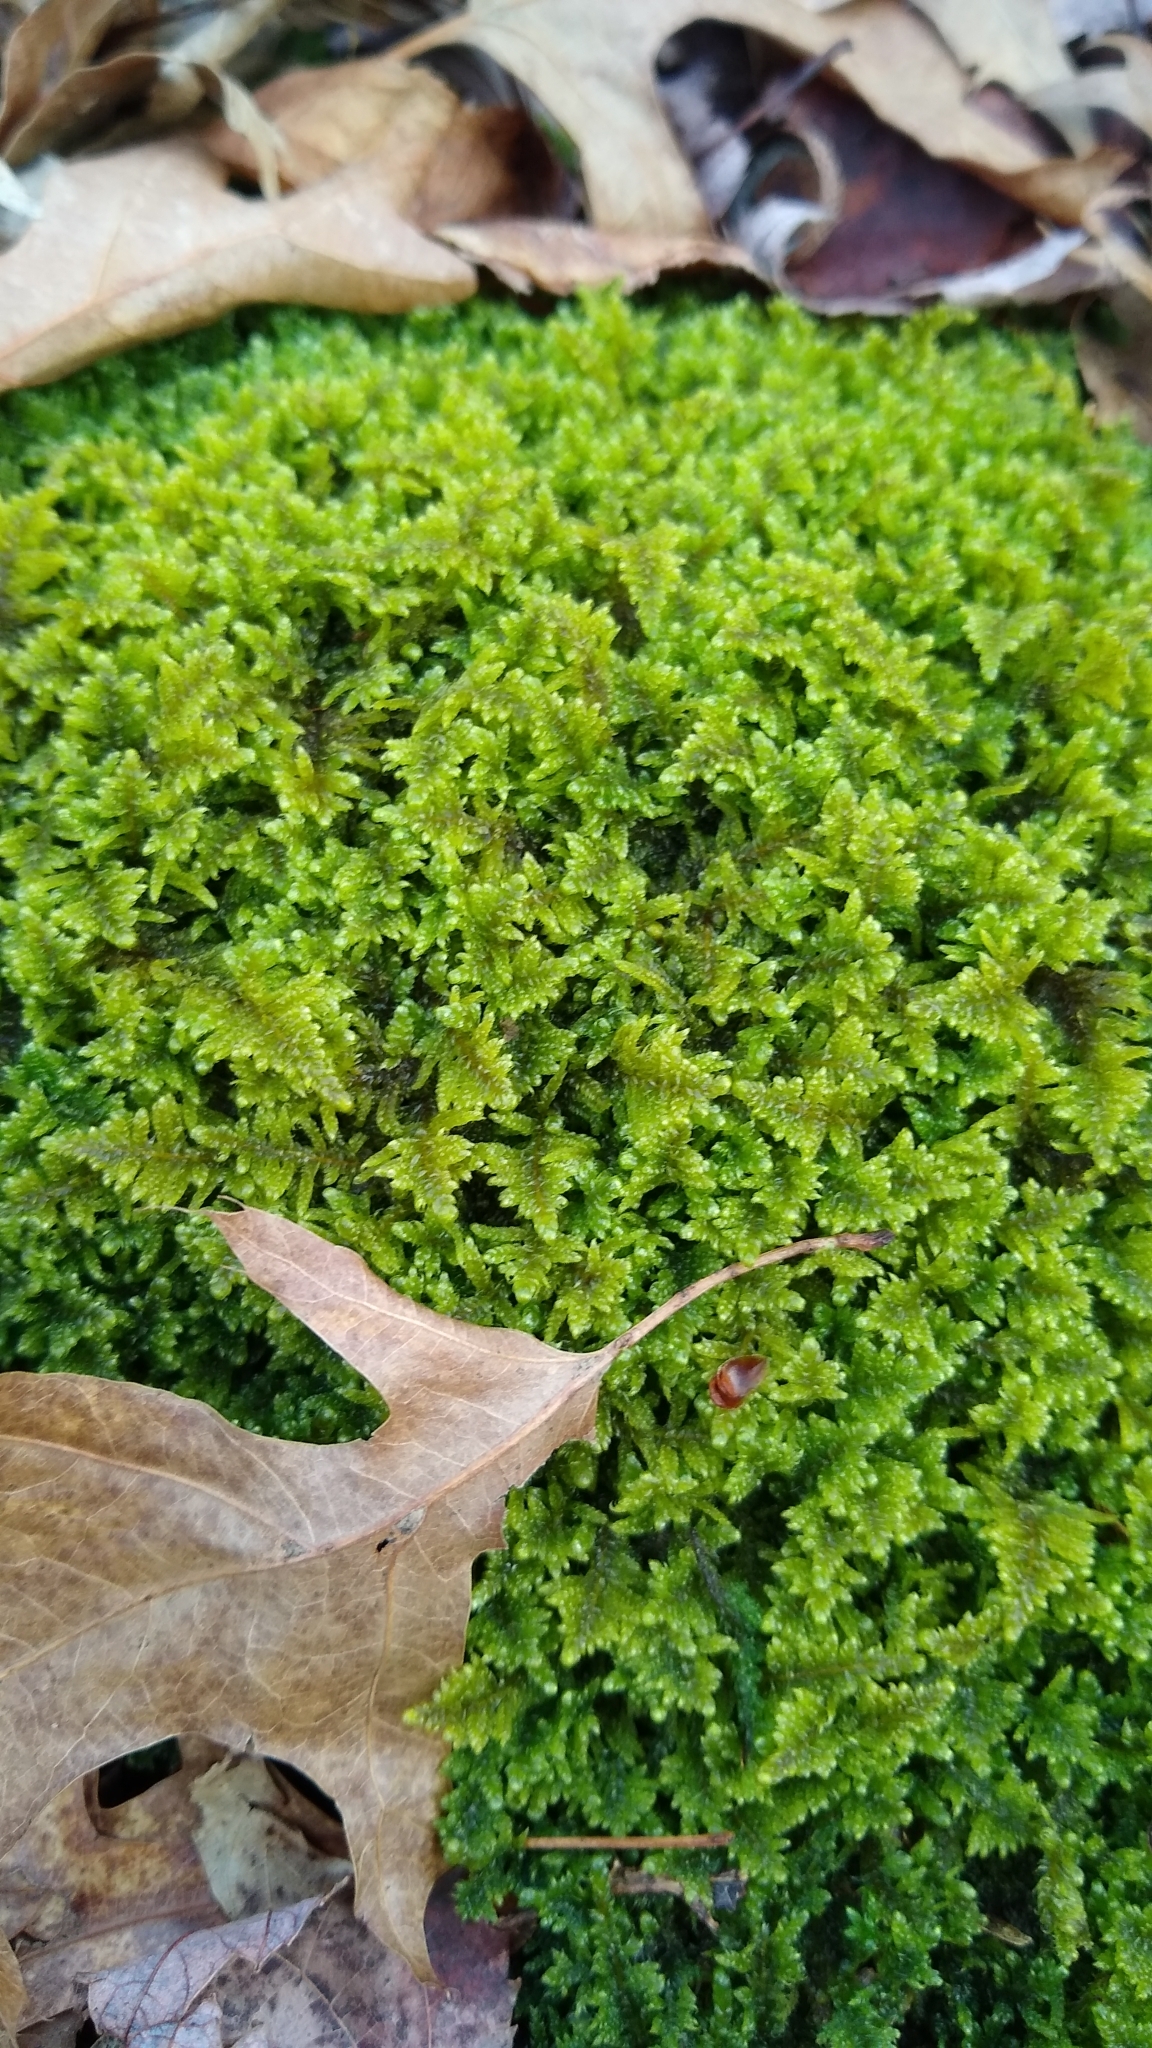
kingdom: Plantae
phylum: Bryophyta
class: Bryopsida
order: Hypnales
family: Callicladiaceae
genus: Callicladium
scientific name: Callicladium imponens
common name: Brocade moss
